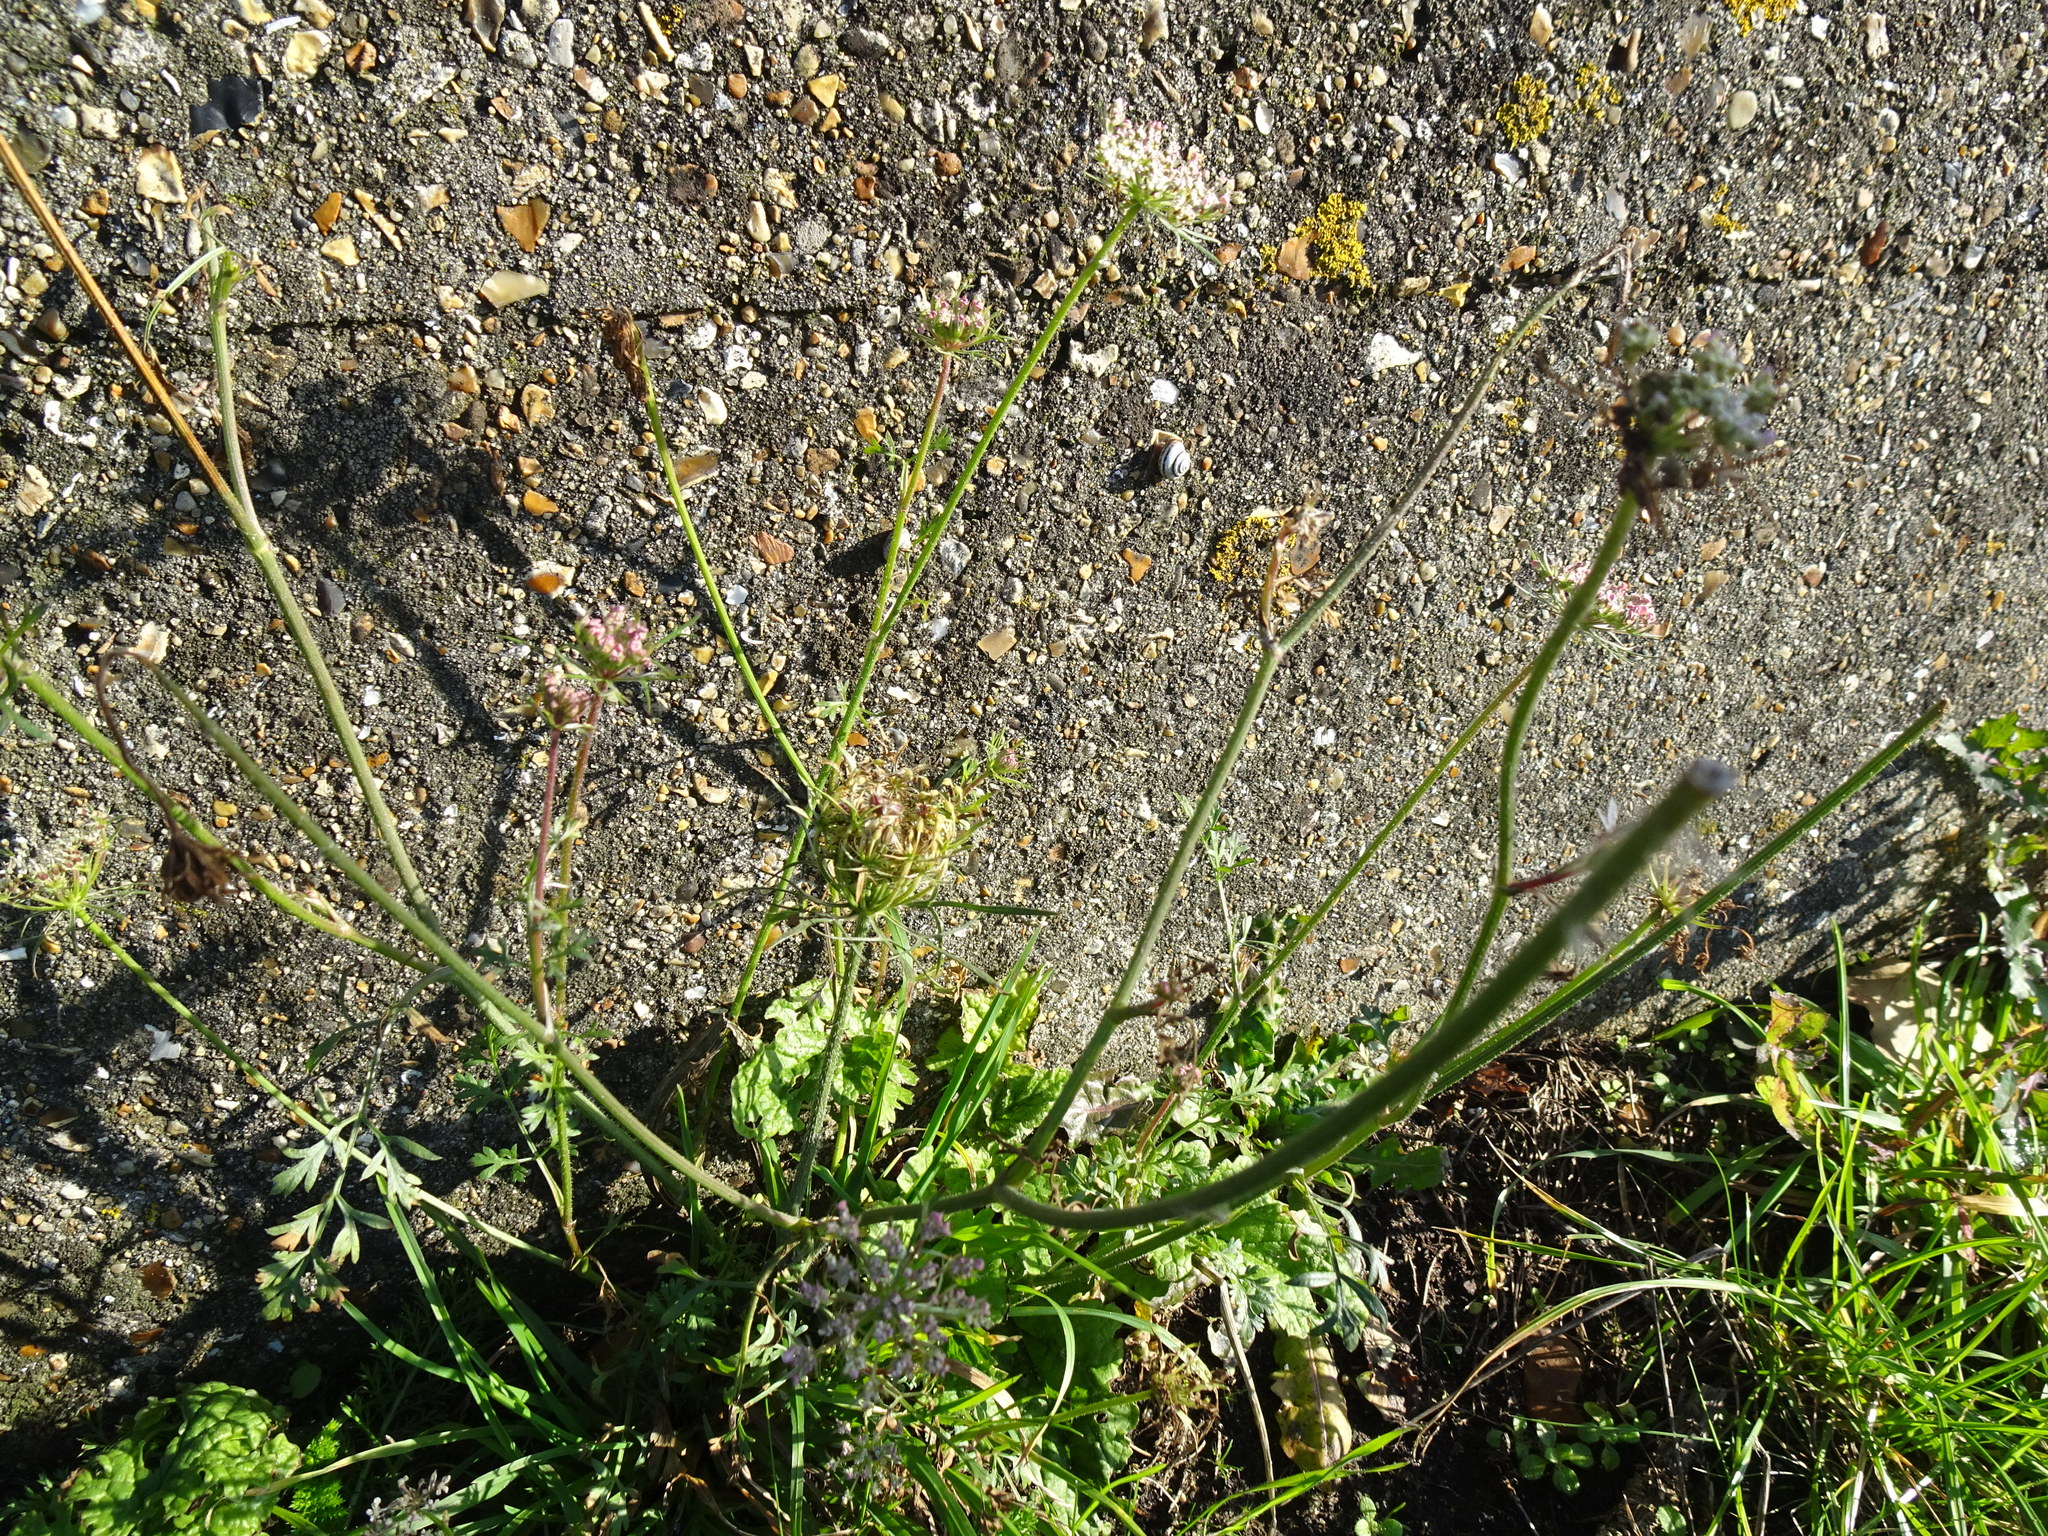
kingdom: Plantae
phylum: Tracheophyta
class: Magnoliopsida
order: Apiales
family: Apiaceae
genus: Daucus
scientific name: Daucus carota
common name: Wild carrot
